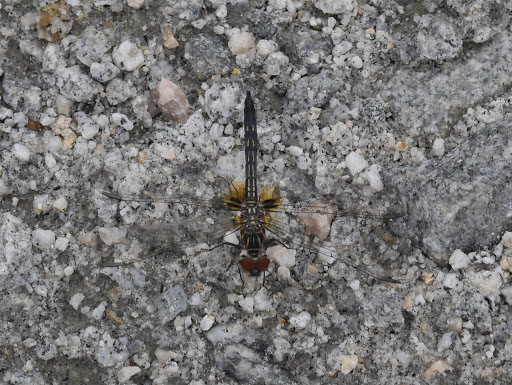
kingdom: Animalia
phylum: Arthropoda
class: Insecta
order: Odonata
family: Libellulidae
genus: Pachydiplax
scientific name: Pachydiplax longipennis
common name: Blue dasher
